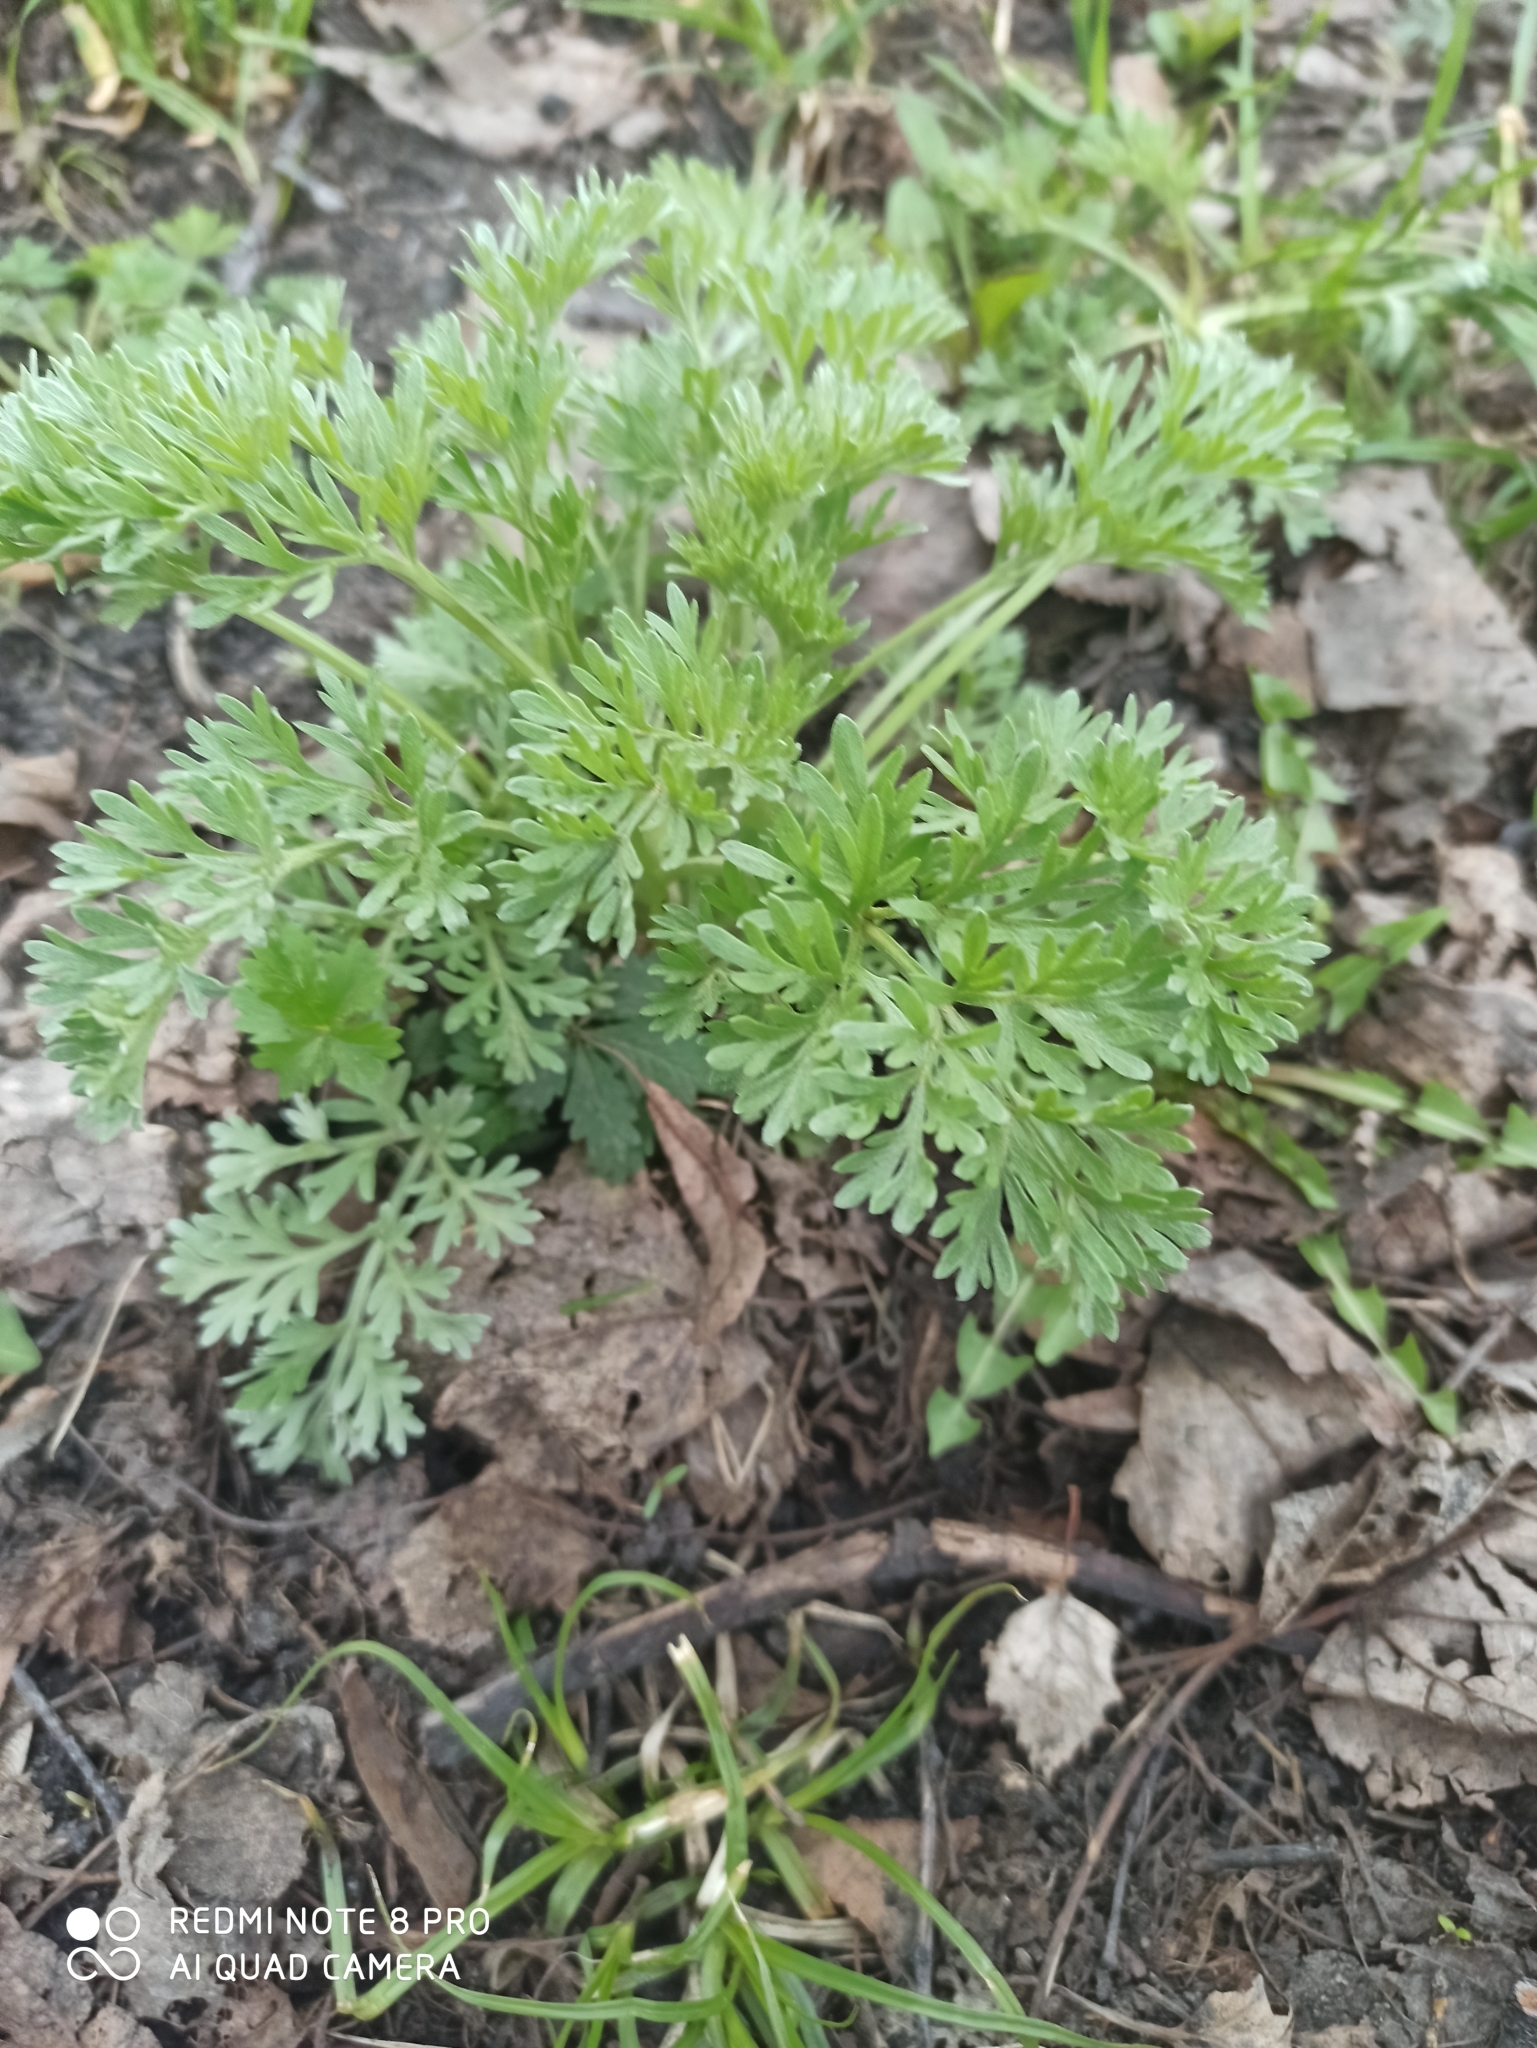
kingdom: Plantae
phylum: Tracheophyta
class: Magnoliopsida
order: Asterales
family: Asteraceae
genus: Artemisia
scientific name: Artemisia absinthium
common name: Wormwood
